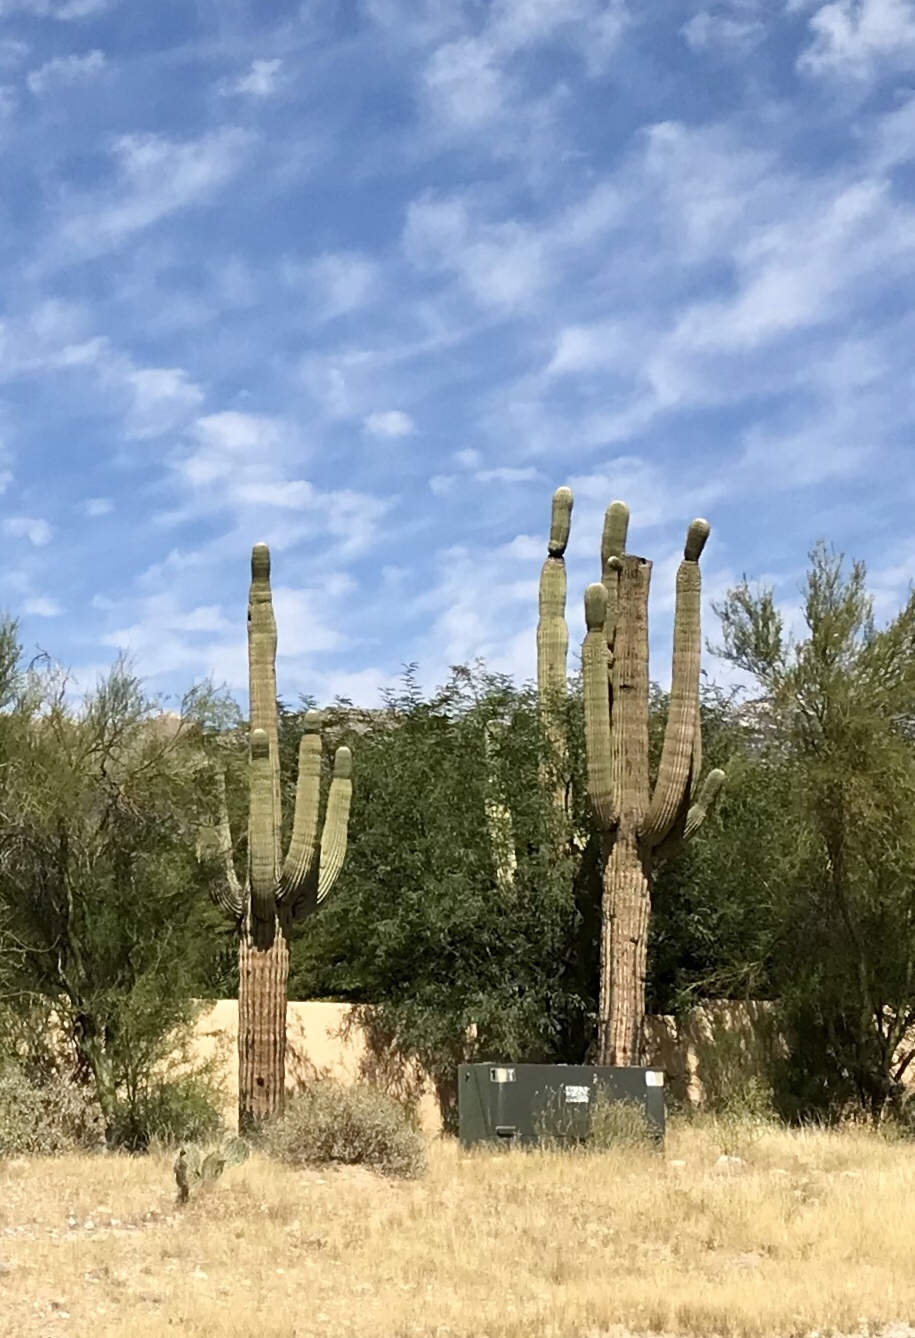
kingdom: Plantae
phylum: Tracheophyta
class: Magnoliopsida
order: Caryophyllales
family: Cactaceae
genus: Carnegiea
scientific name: Carnegiea gigantea
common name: Saguaro
